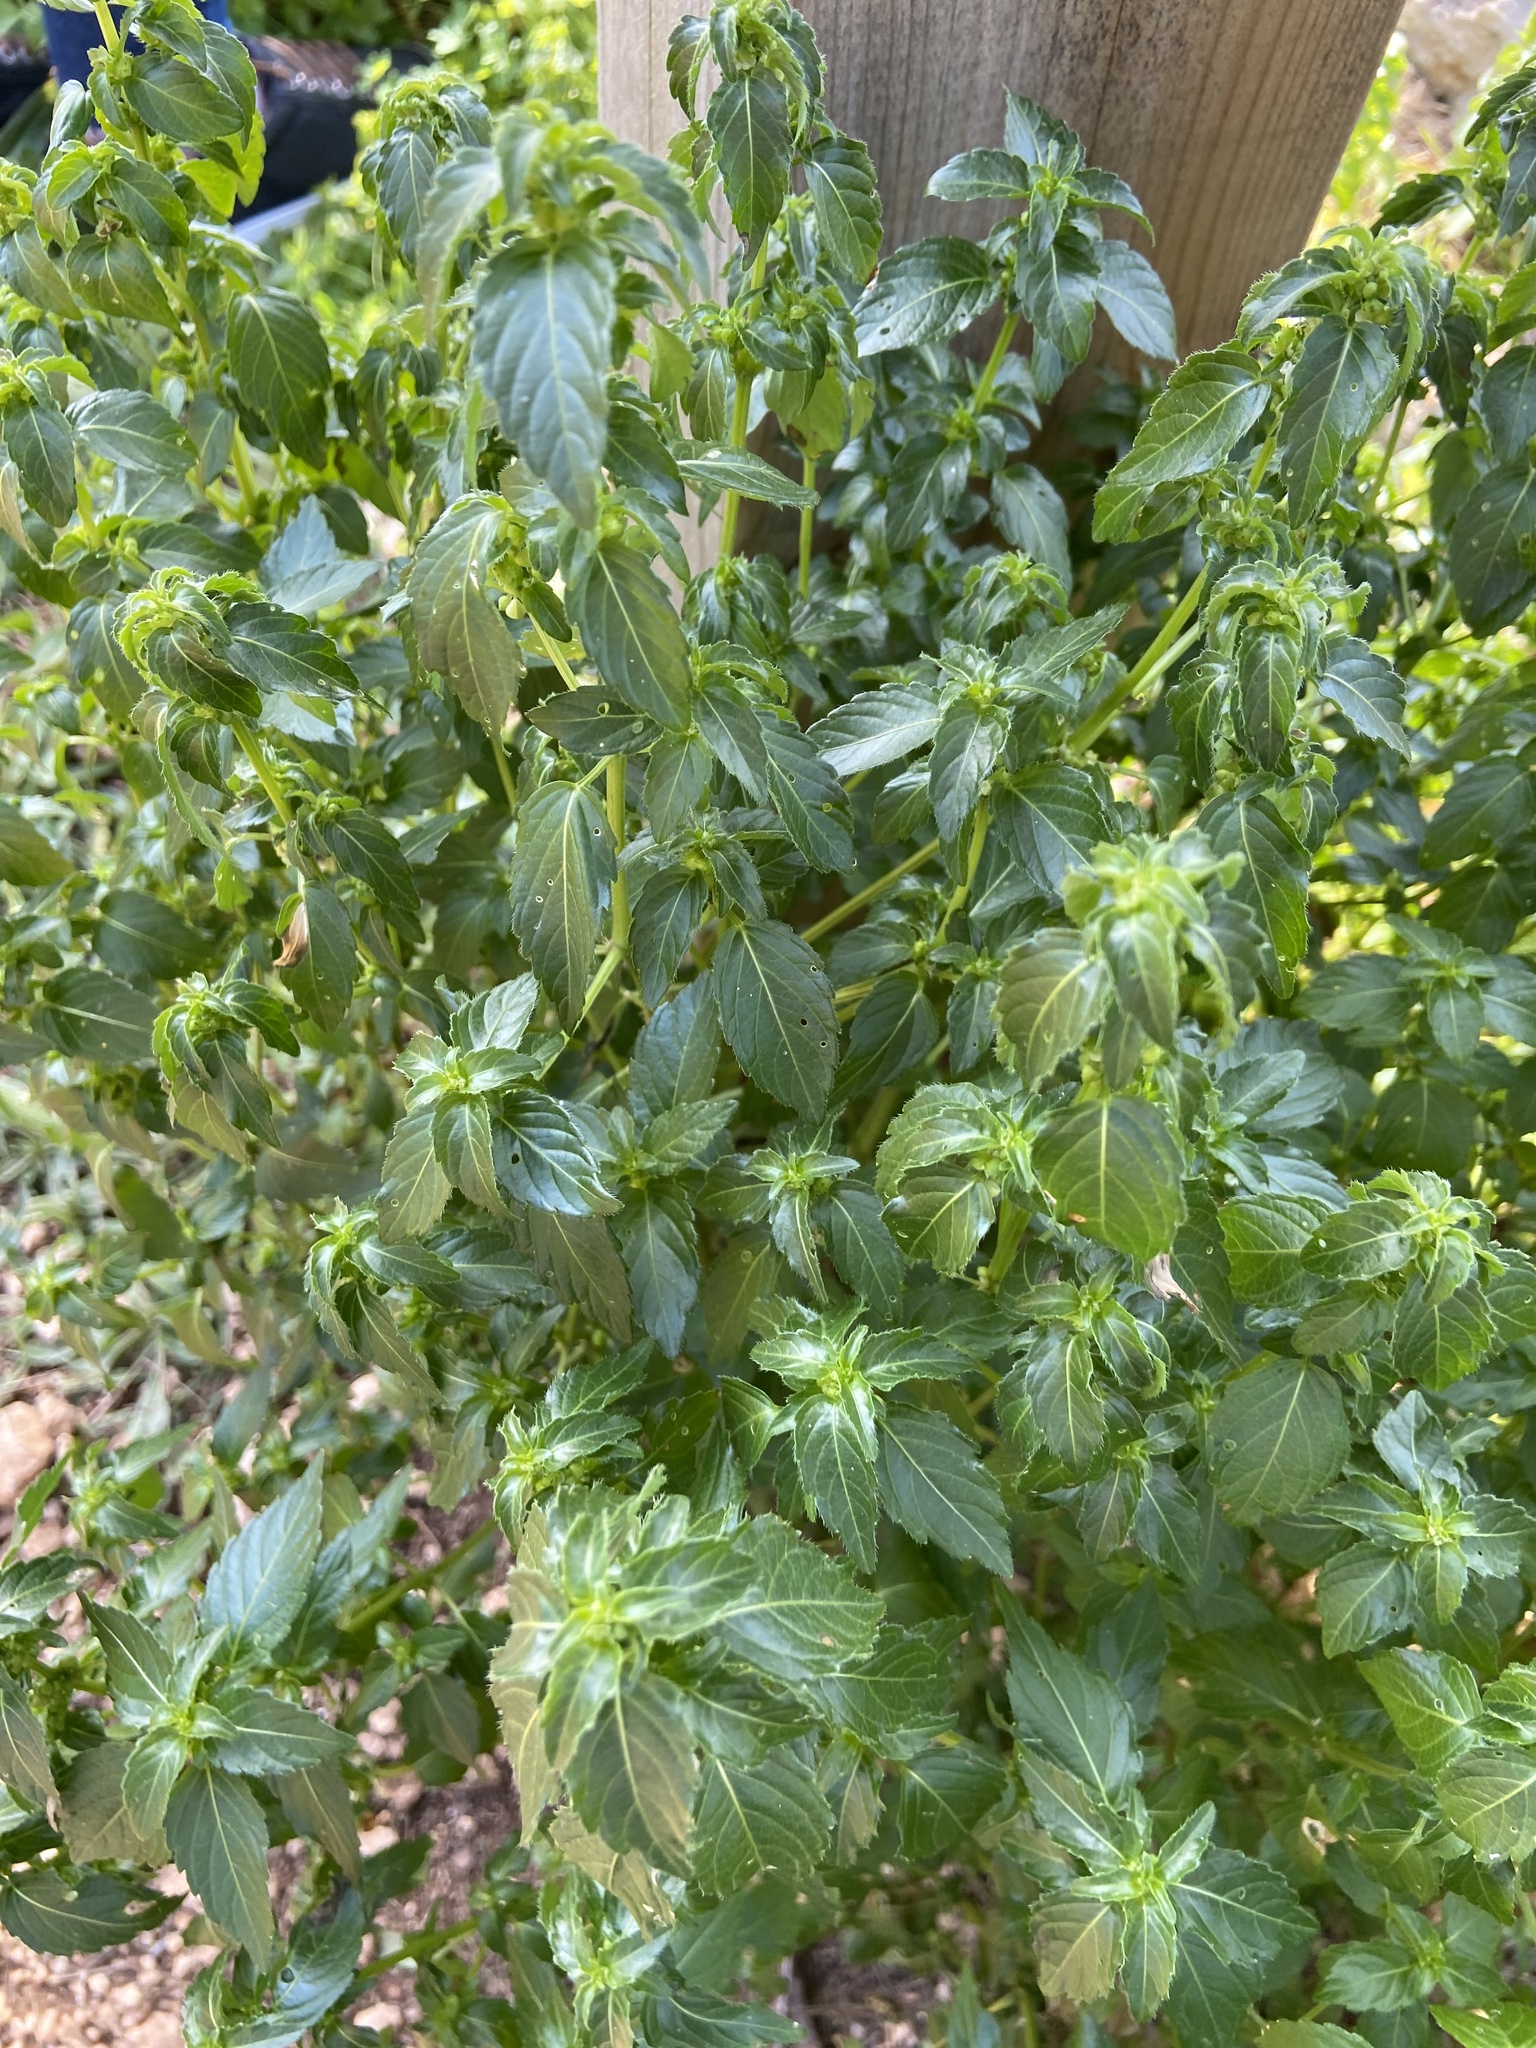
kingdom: Plantae
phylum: Tracheophyta
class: Magnoliopsida
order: Malpighiales
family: Euphorbiaceae
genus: Mercurialis
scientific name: Mercurialis annua
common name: Annual mercury
